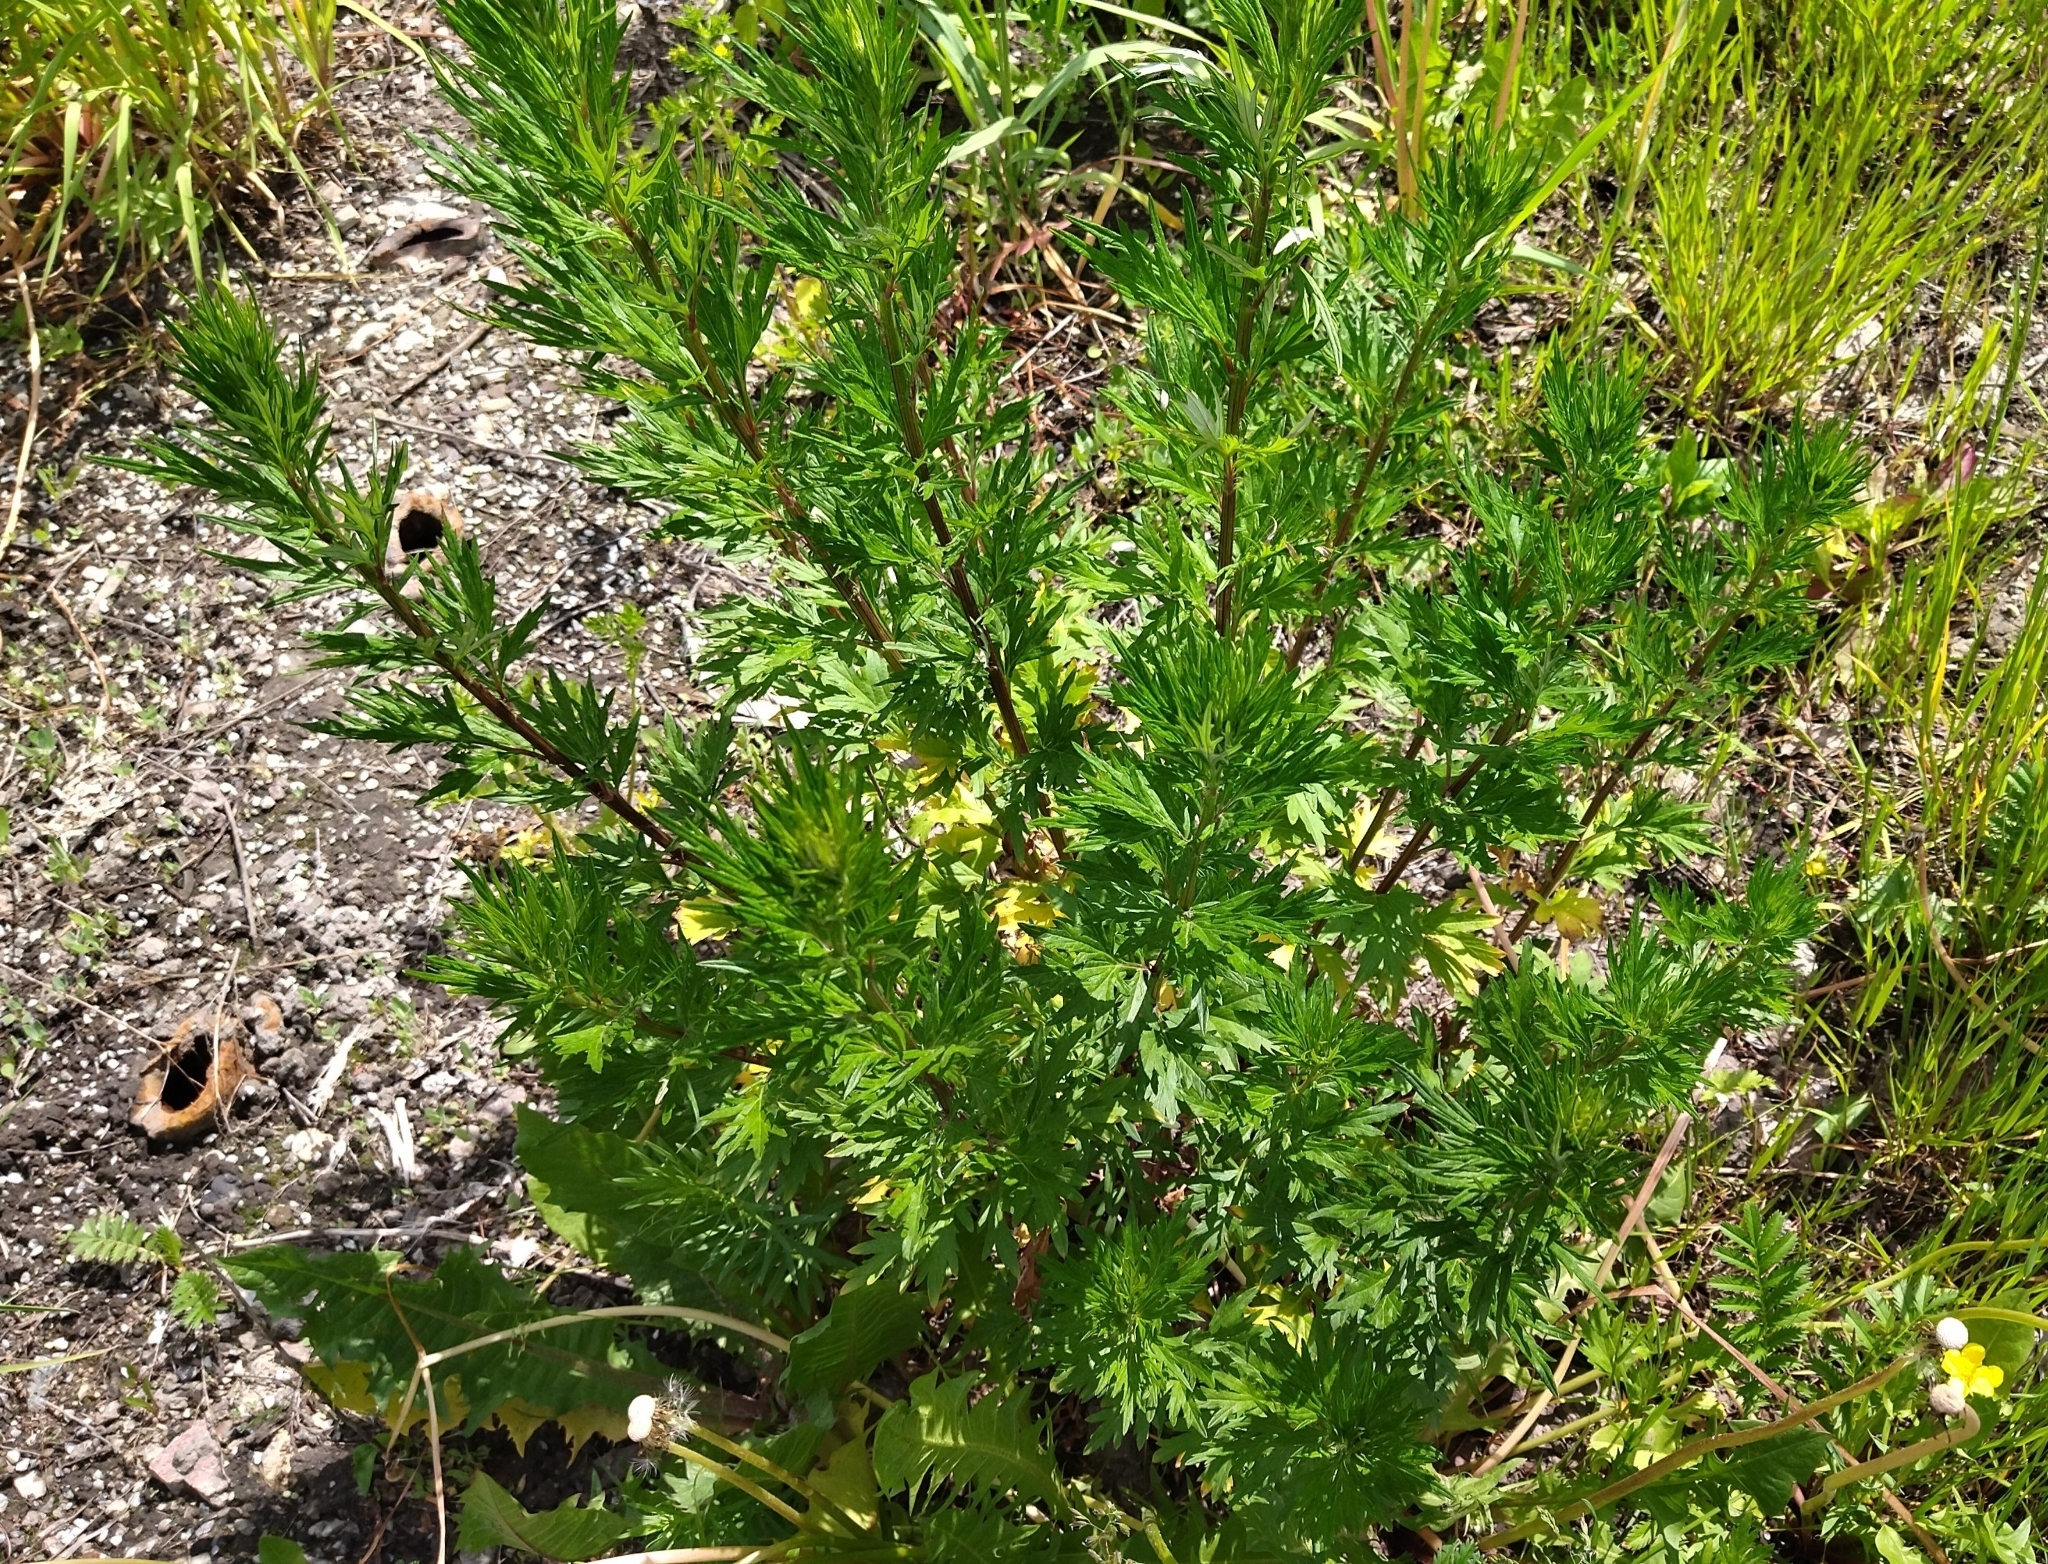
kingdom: Plantae
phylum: Tracheophyta
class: Magnoliopsida
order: Asterales
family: Asteraceae
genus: Artemisia
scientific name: Artemisia vulgaris
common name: Mugwort
